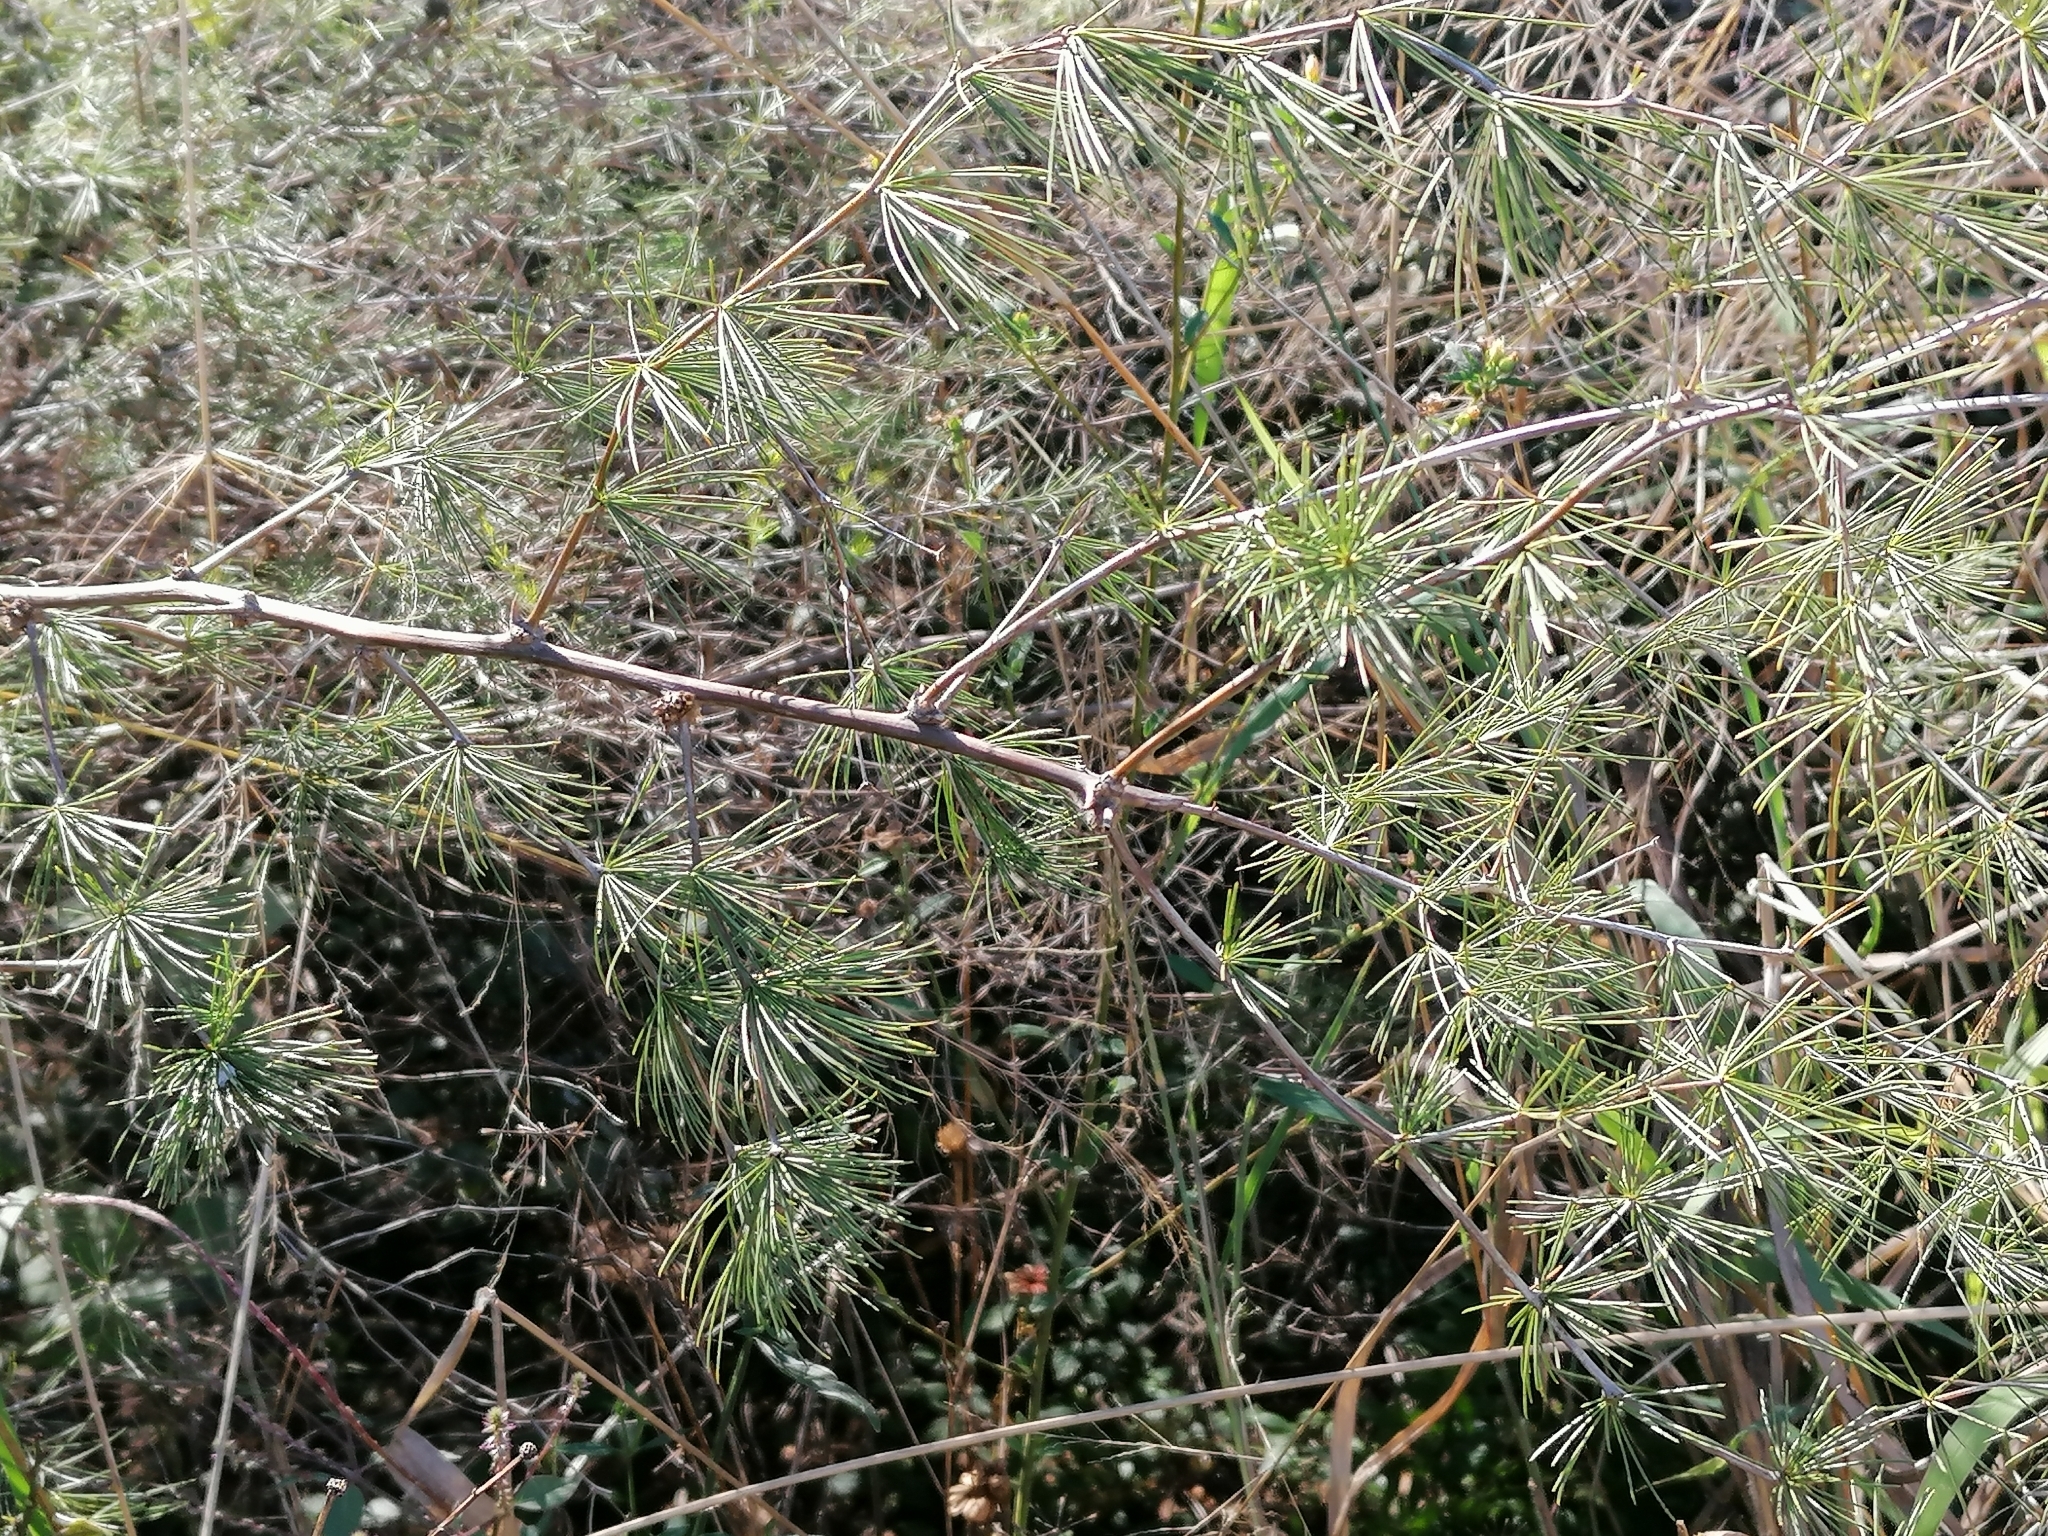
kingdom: Plantae
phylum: Tracheophyta
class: Liliopsida
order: Asparagales
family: Asparagaceae
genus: Asparagus
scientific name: Asparagus laricinus
